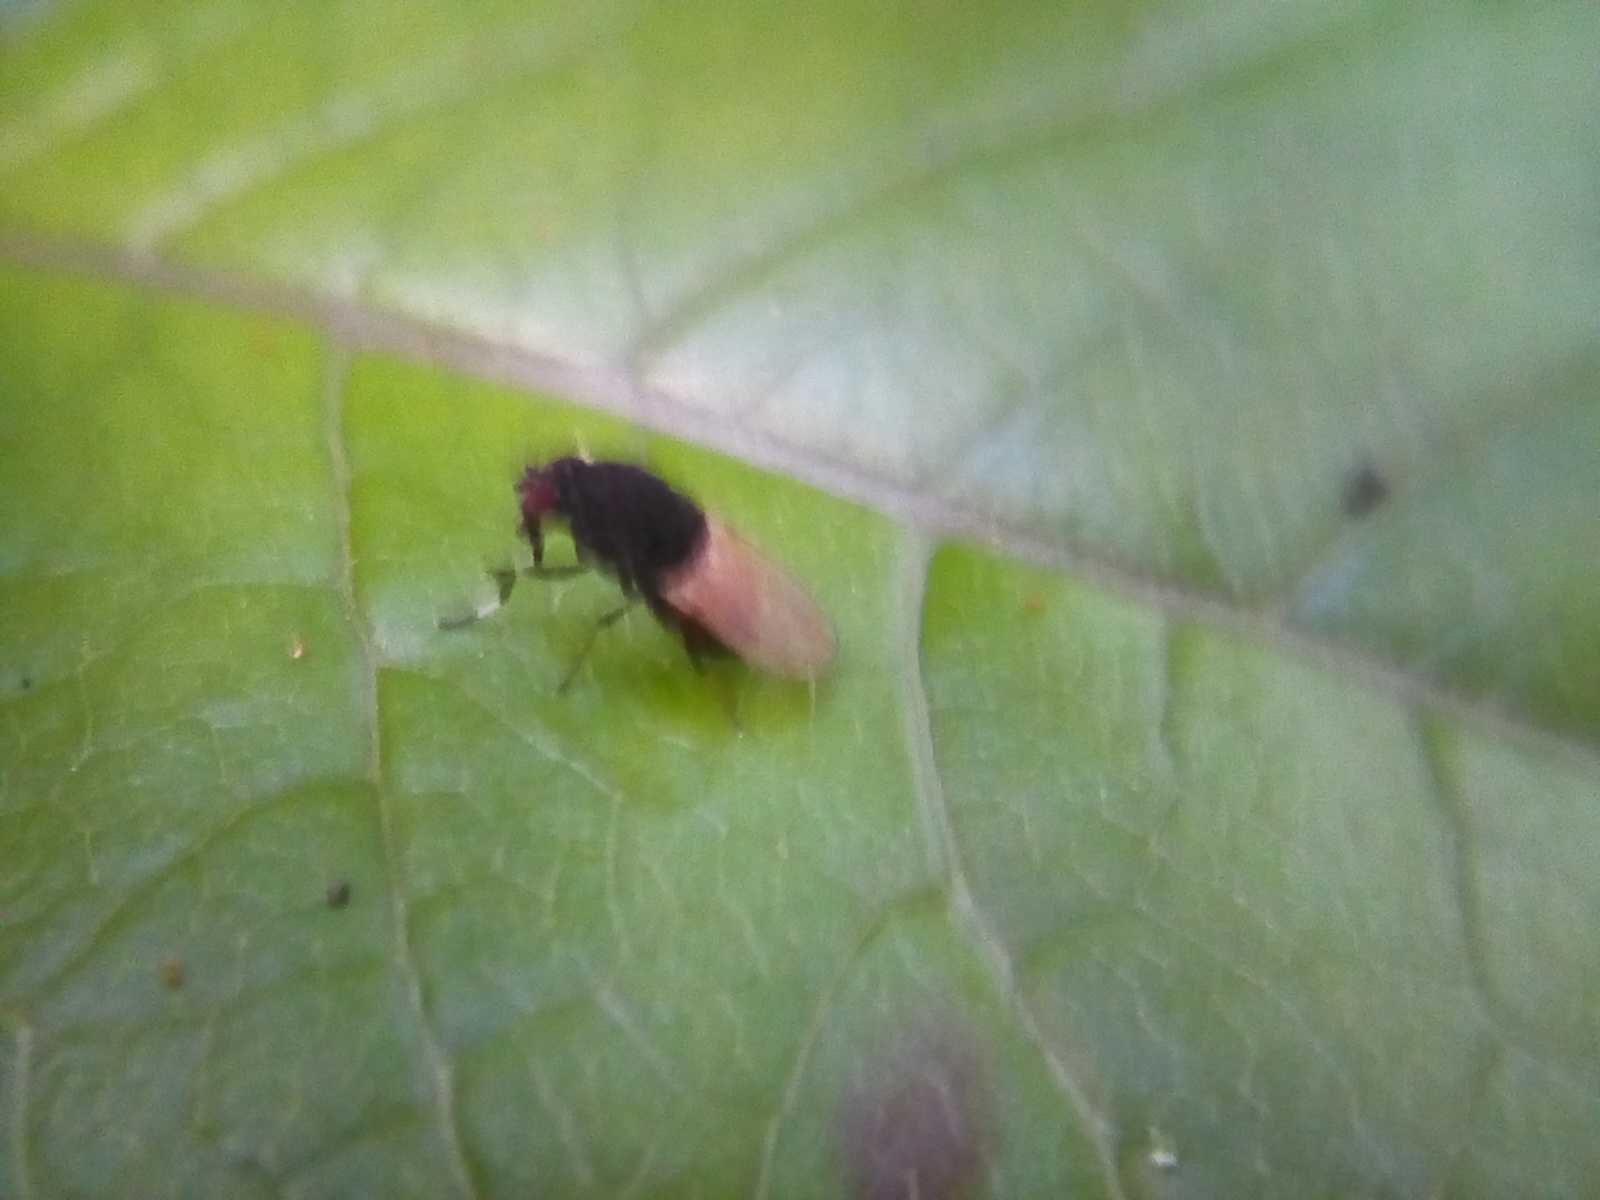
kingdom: Animalia
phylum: Arthropoda
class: Insecta
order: Diptera
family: Heleomyzidae
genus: Allophylina
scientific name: Allophylina albitarsis
